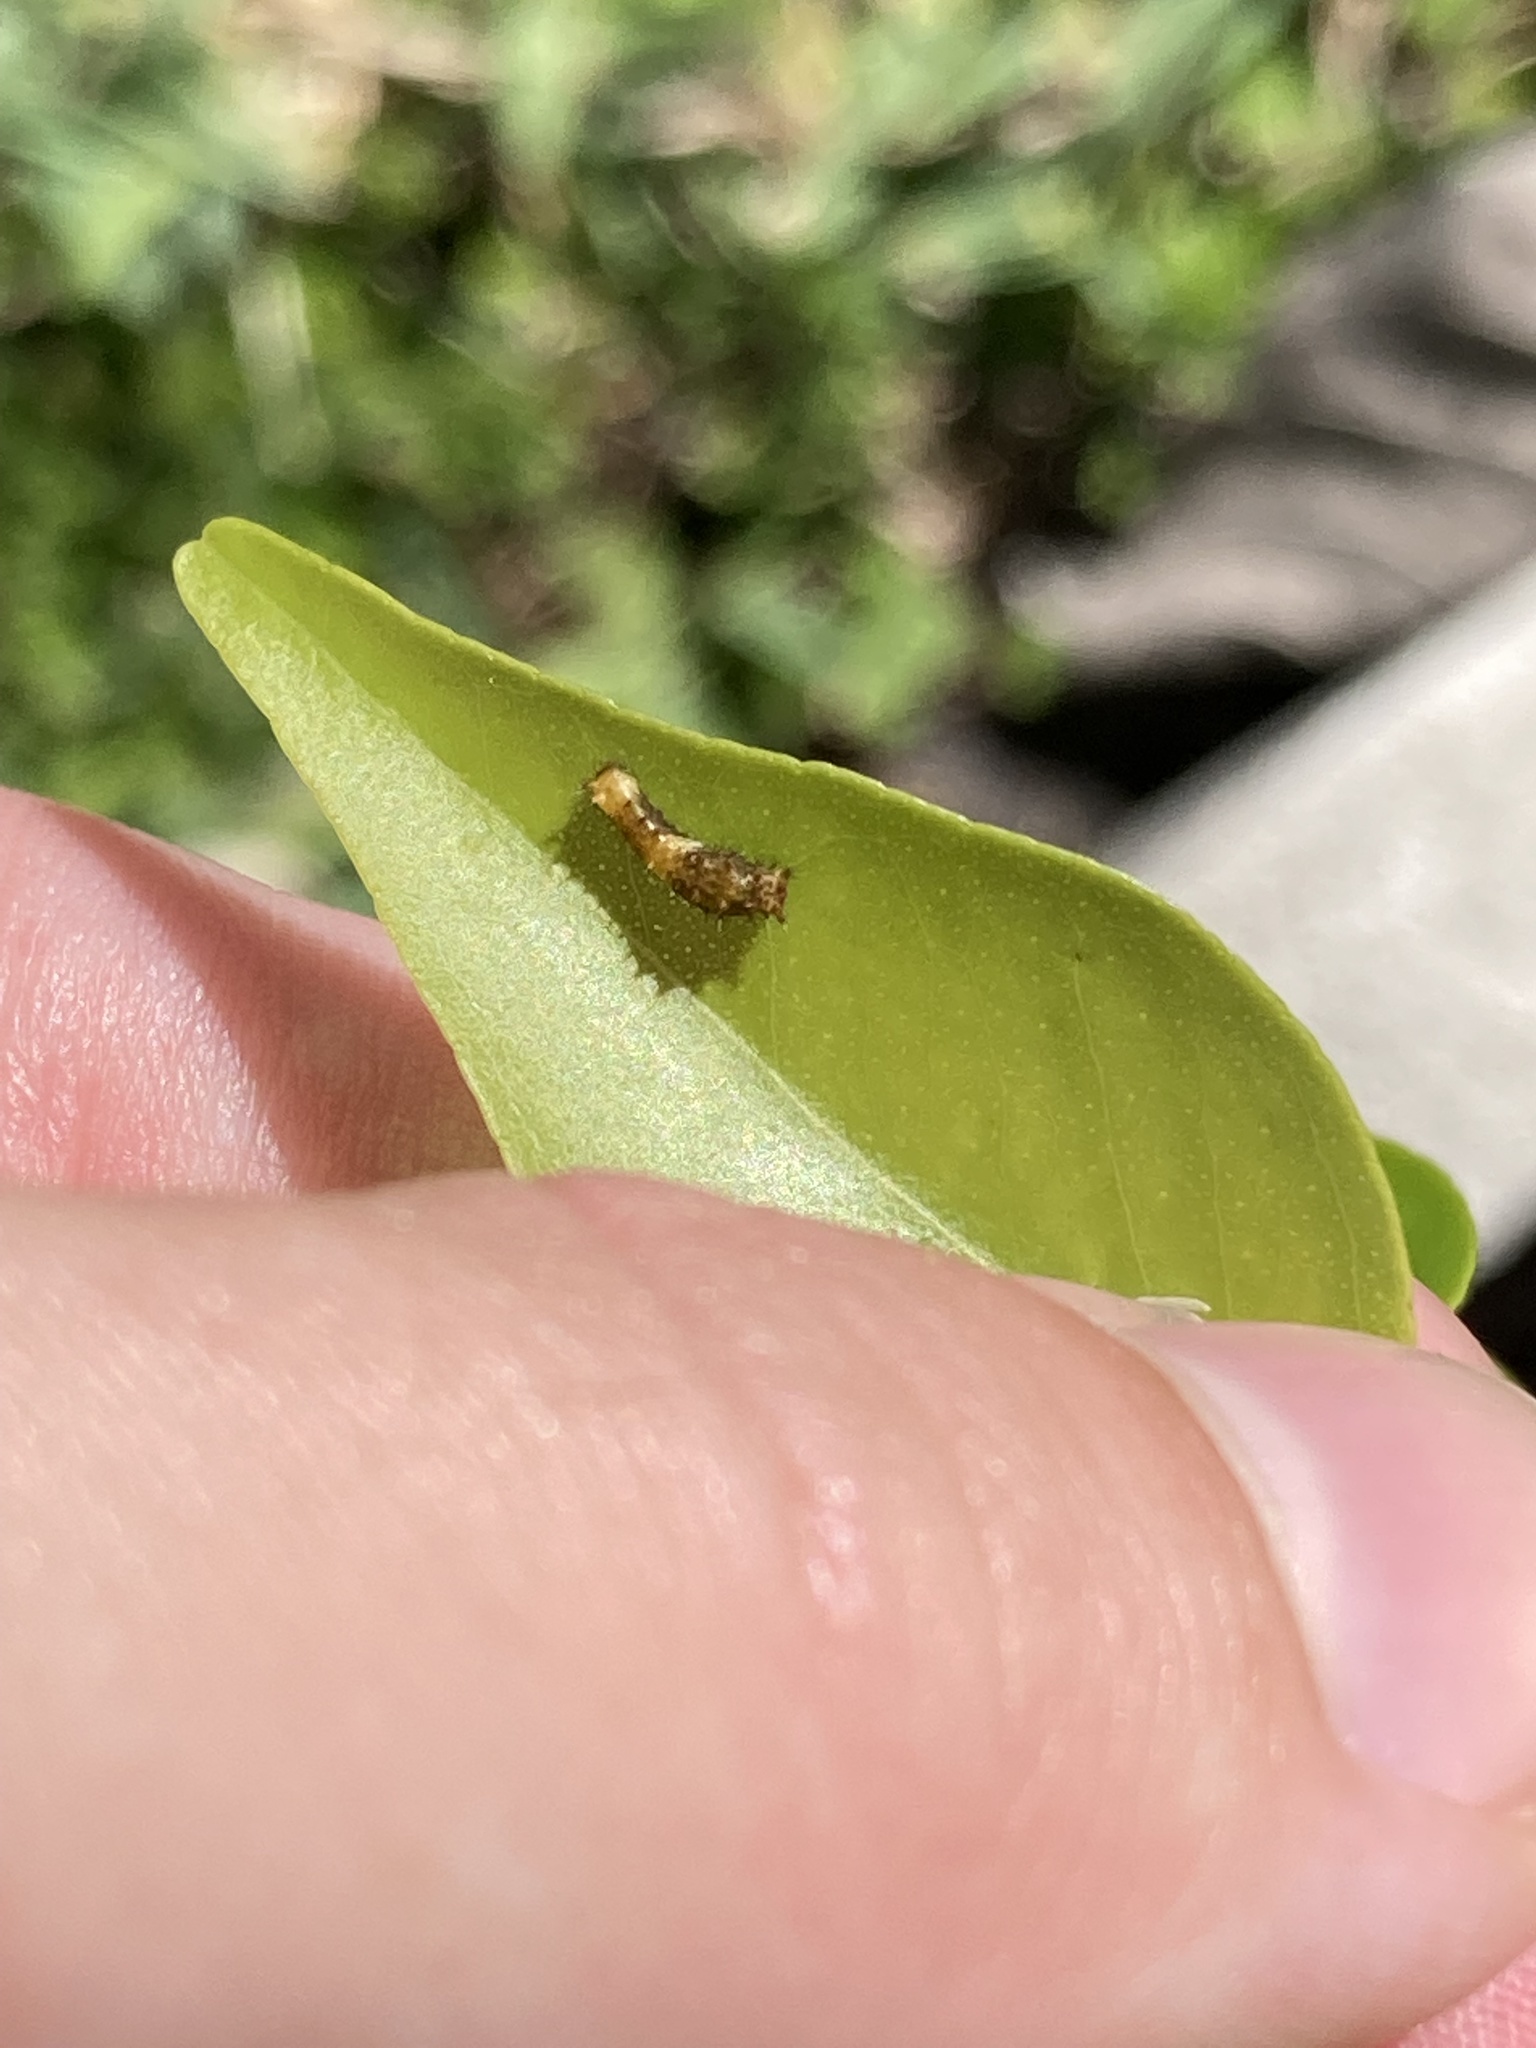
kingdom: Animalia
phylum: Arthropoda
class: Insecta
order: Lepidoptera
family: Papilionidae
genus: Papilio
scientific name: Papilio cresphontes
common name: Giant swallowtail
